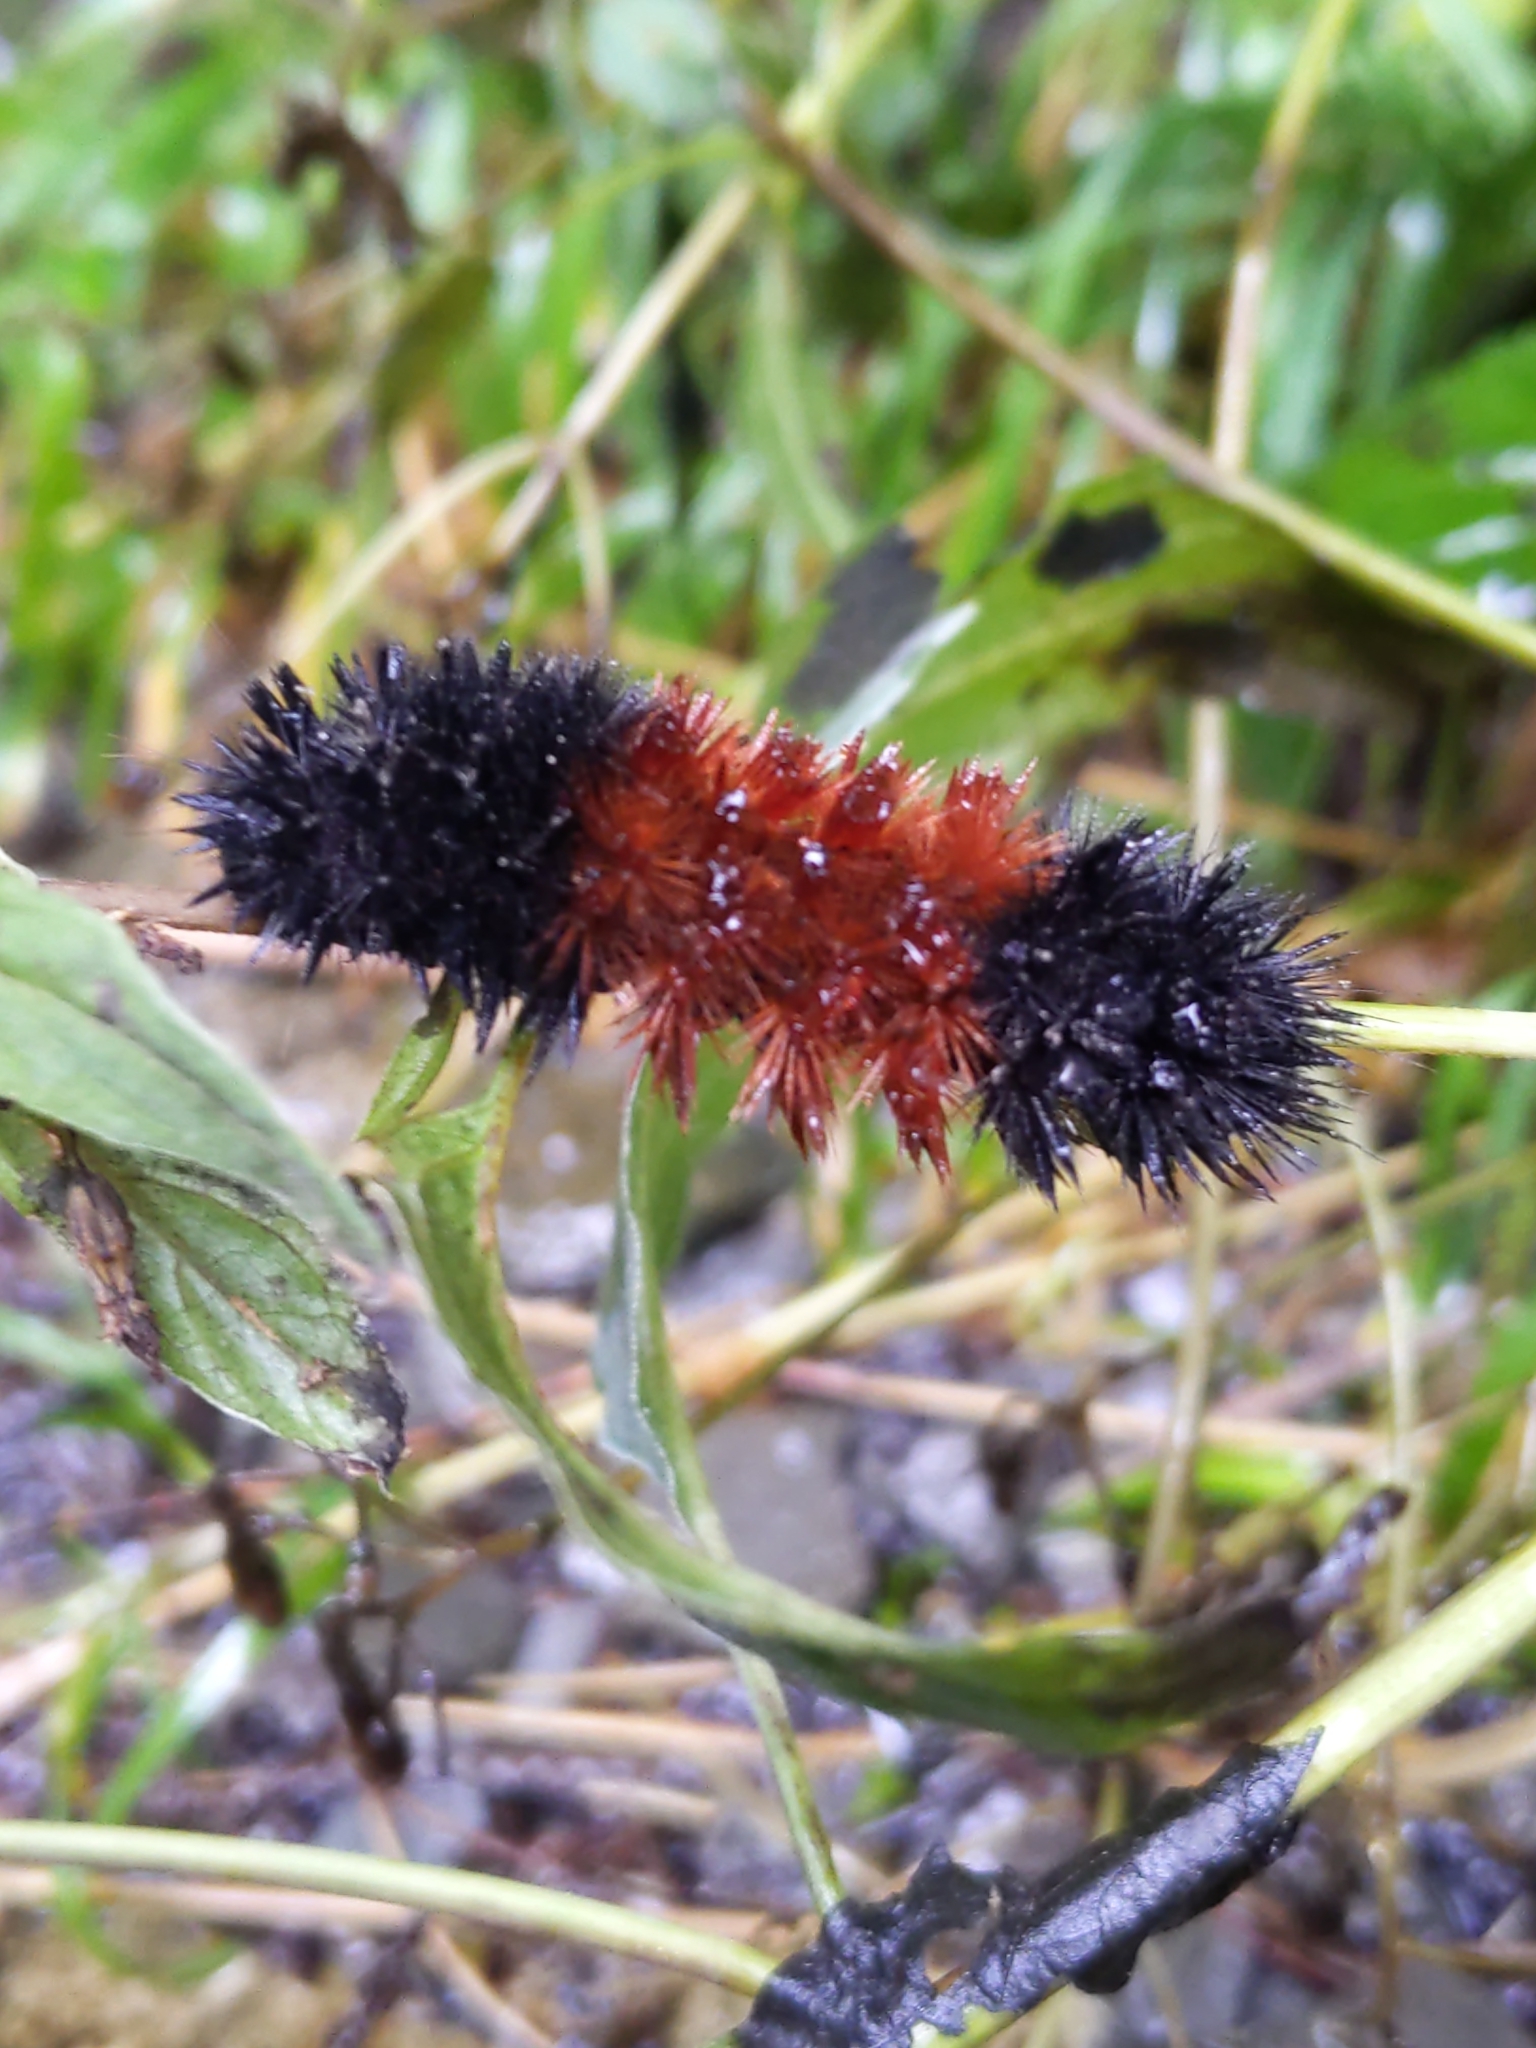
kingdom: Animalia
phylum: Arthropoda
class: Insecta
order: Lepidoptera
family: Erebidae
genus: Pyrrharctia
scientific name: Pyrrharctia isabella
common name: Isabella tiger moth
